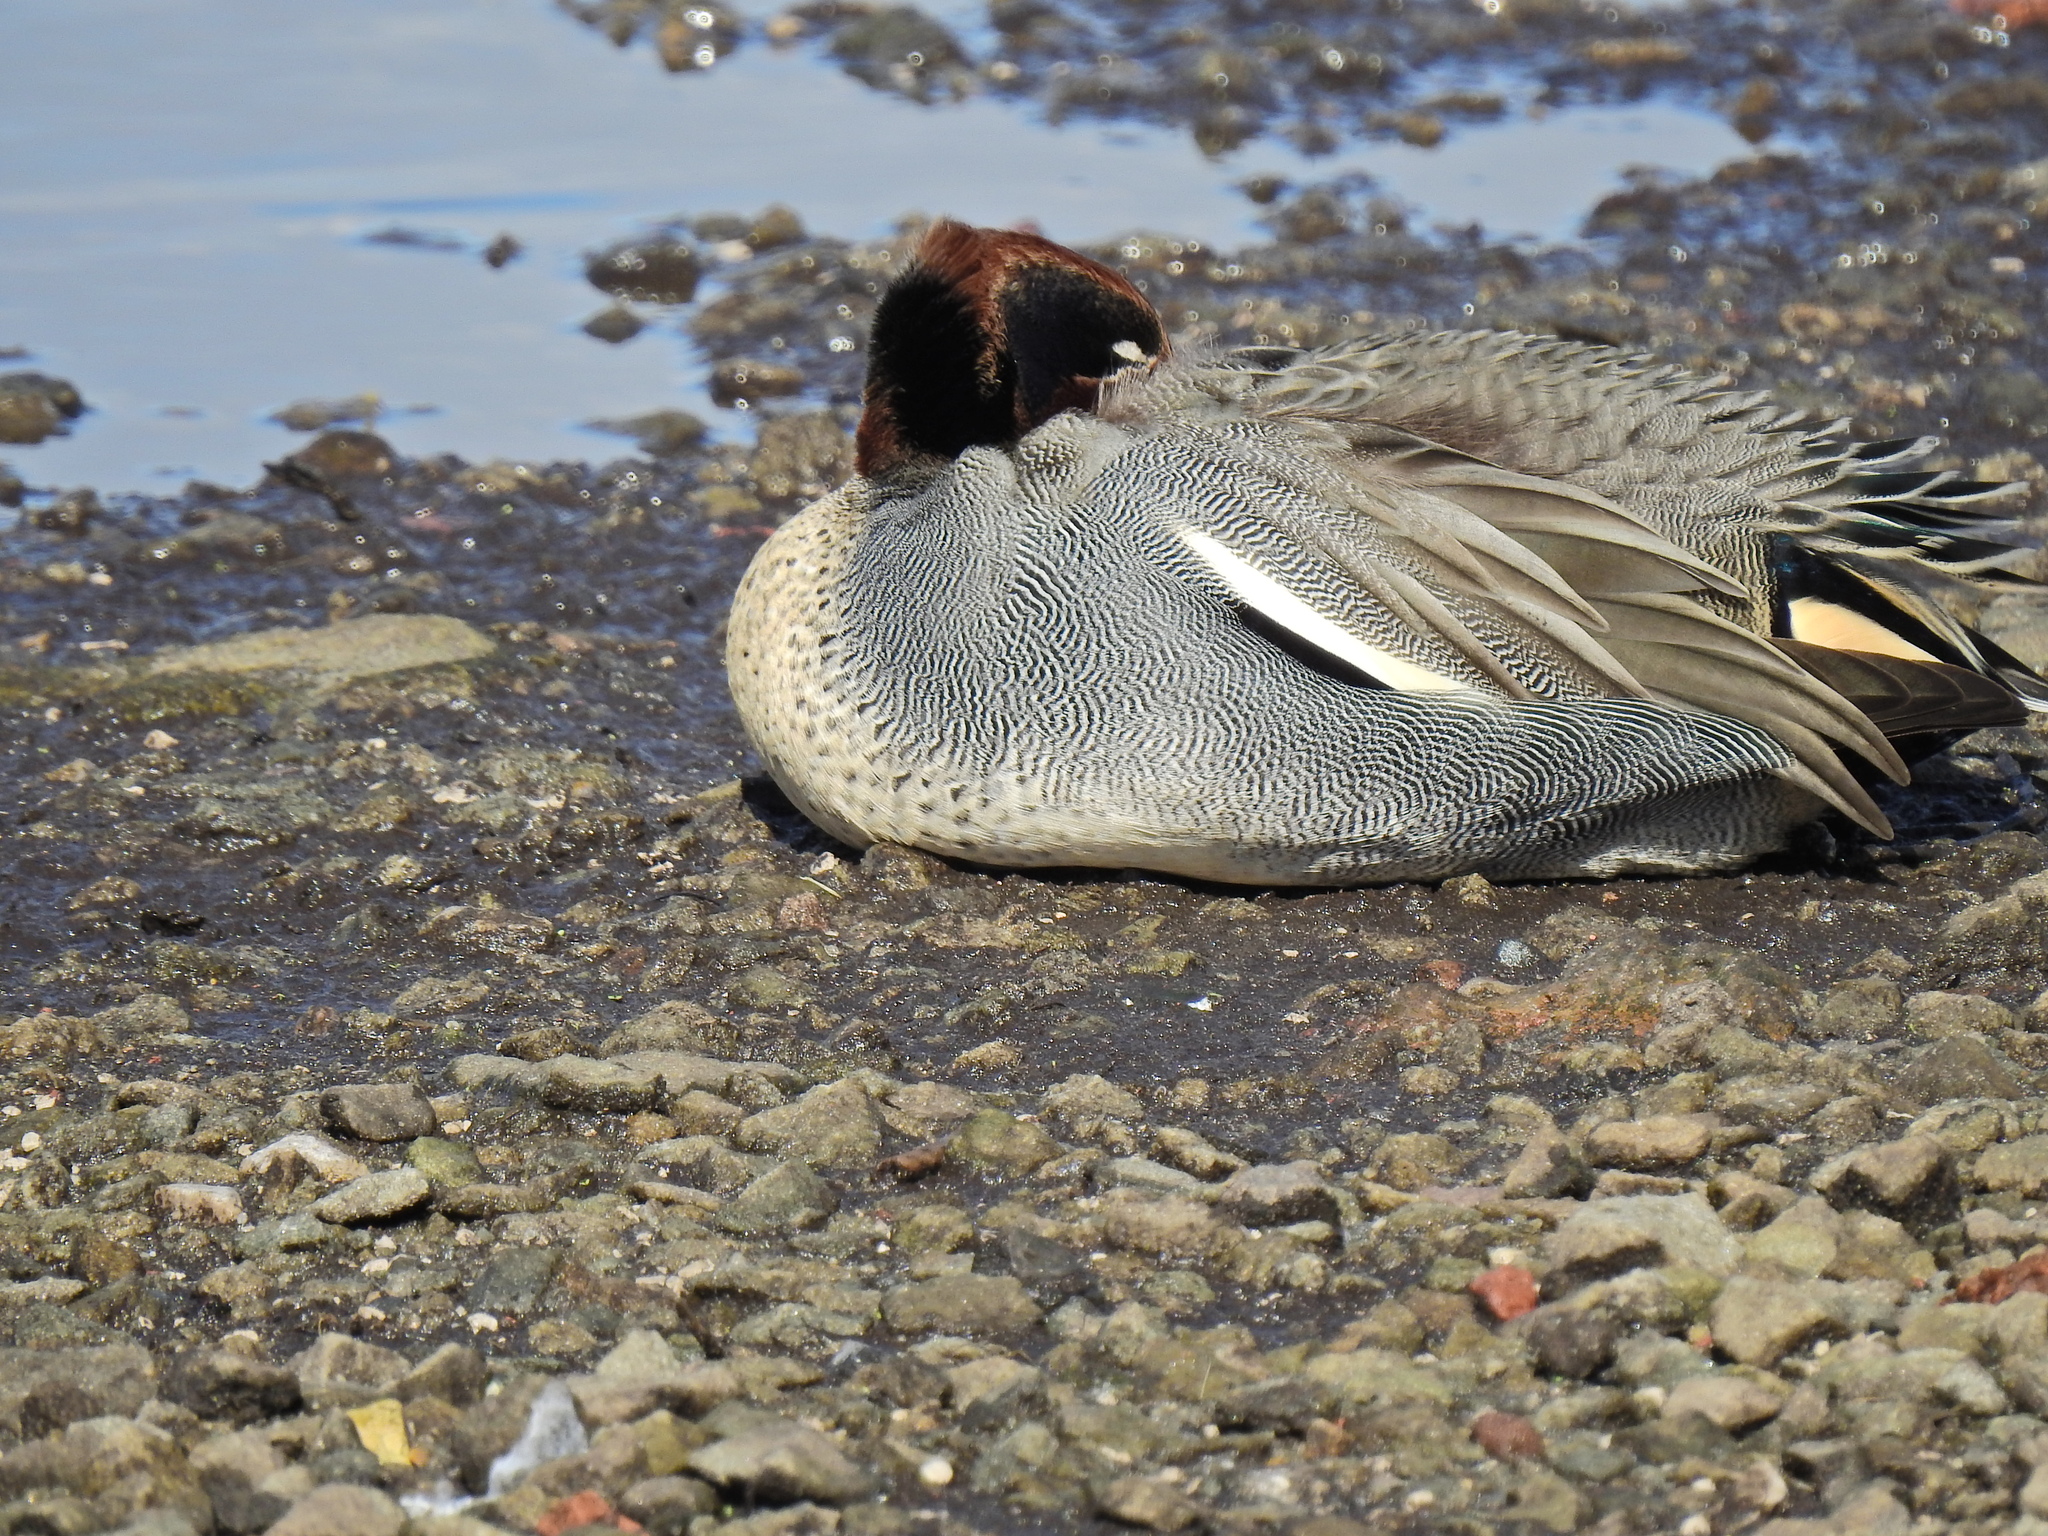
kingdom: Animalia
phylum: Chordata
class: Aves
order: Anseriformes
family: Anatidae
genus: Anas
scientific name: Anas crecca
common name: Eurasian teal
